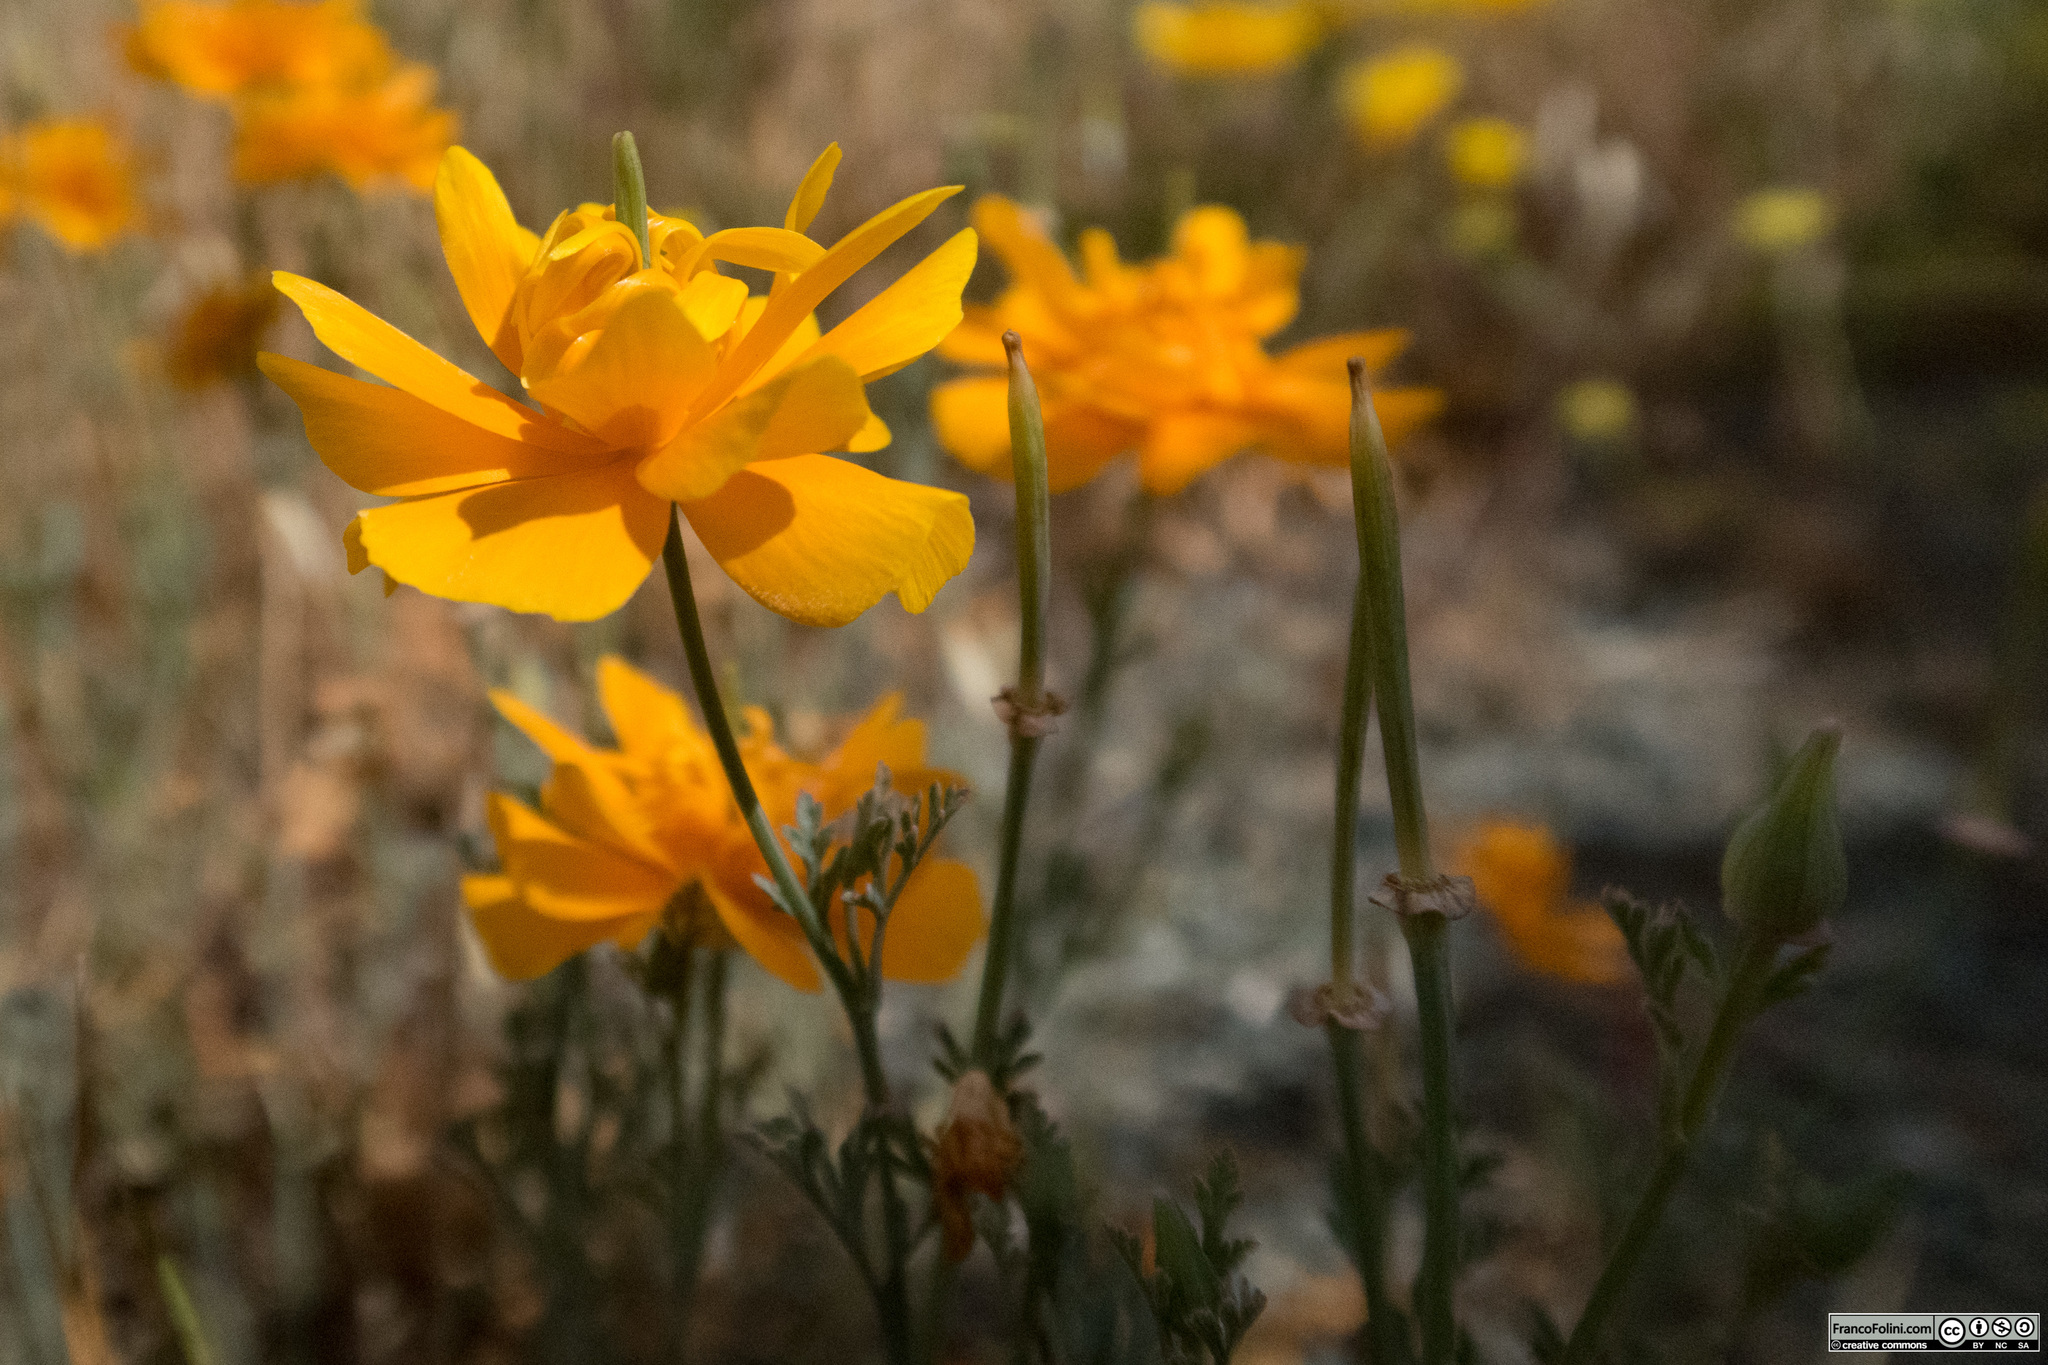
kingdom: Plantae
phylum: Tracheophyta
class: Magnoliopsida
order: Ranunculales
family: Papaveraceae
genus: Eschscholzia
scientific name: Eschscholzia californica
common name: California poppy
